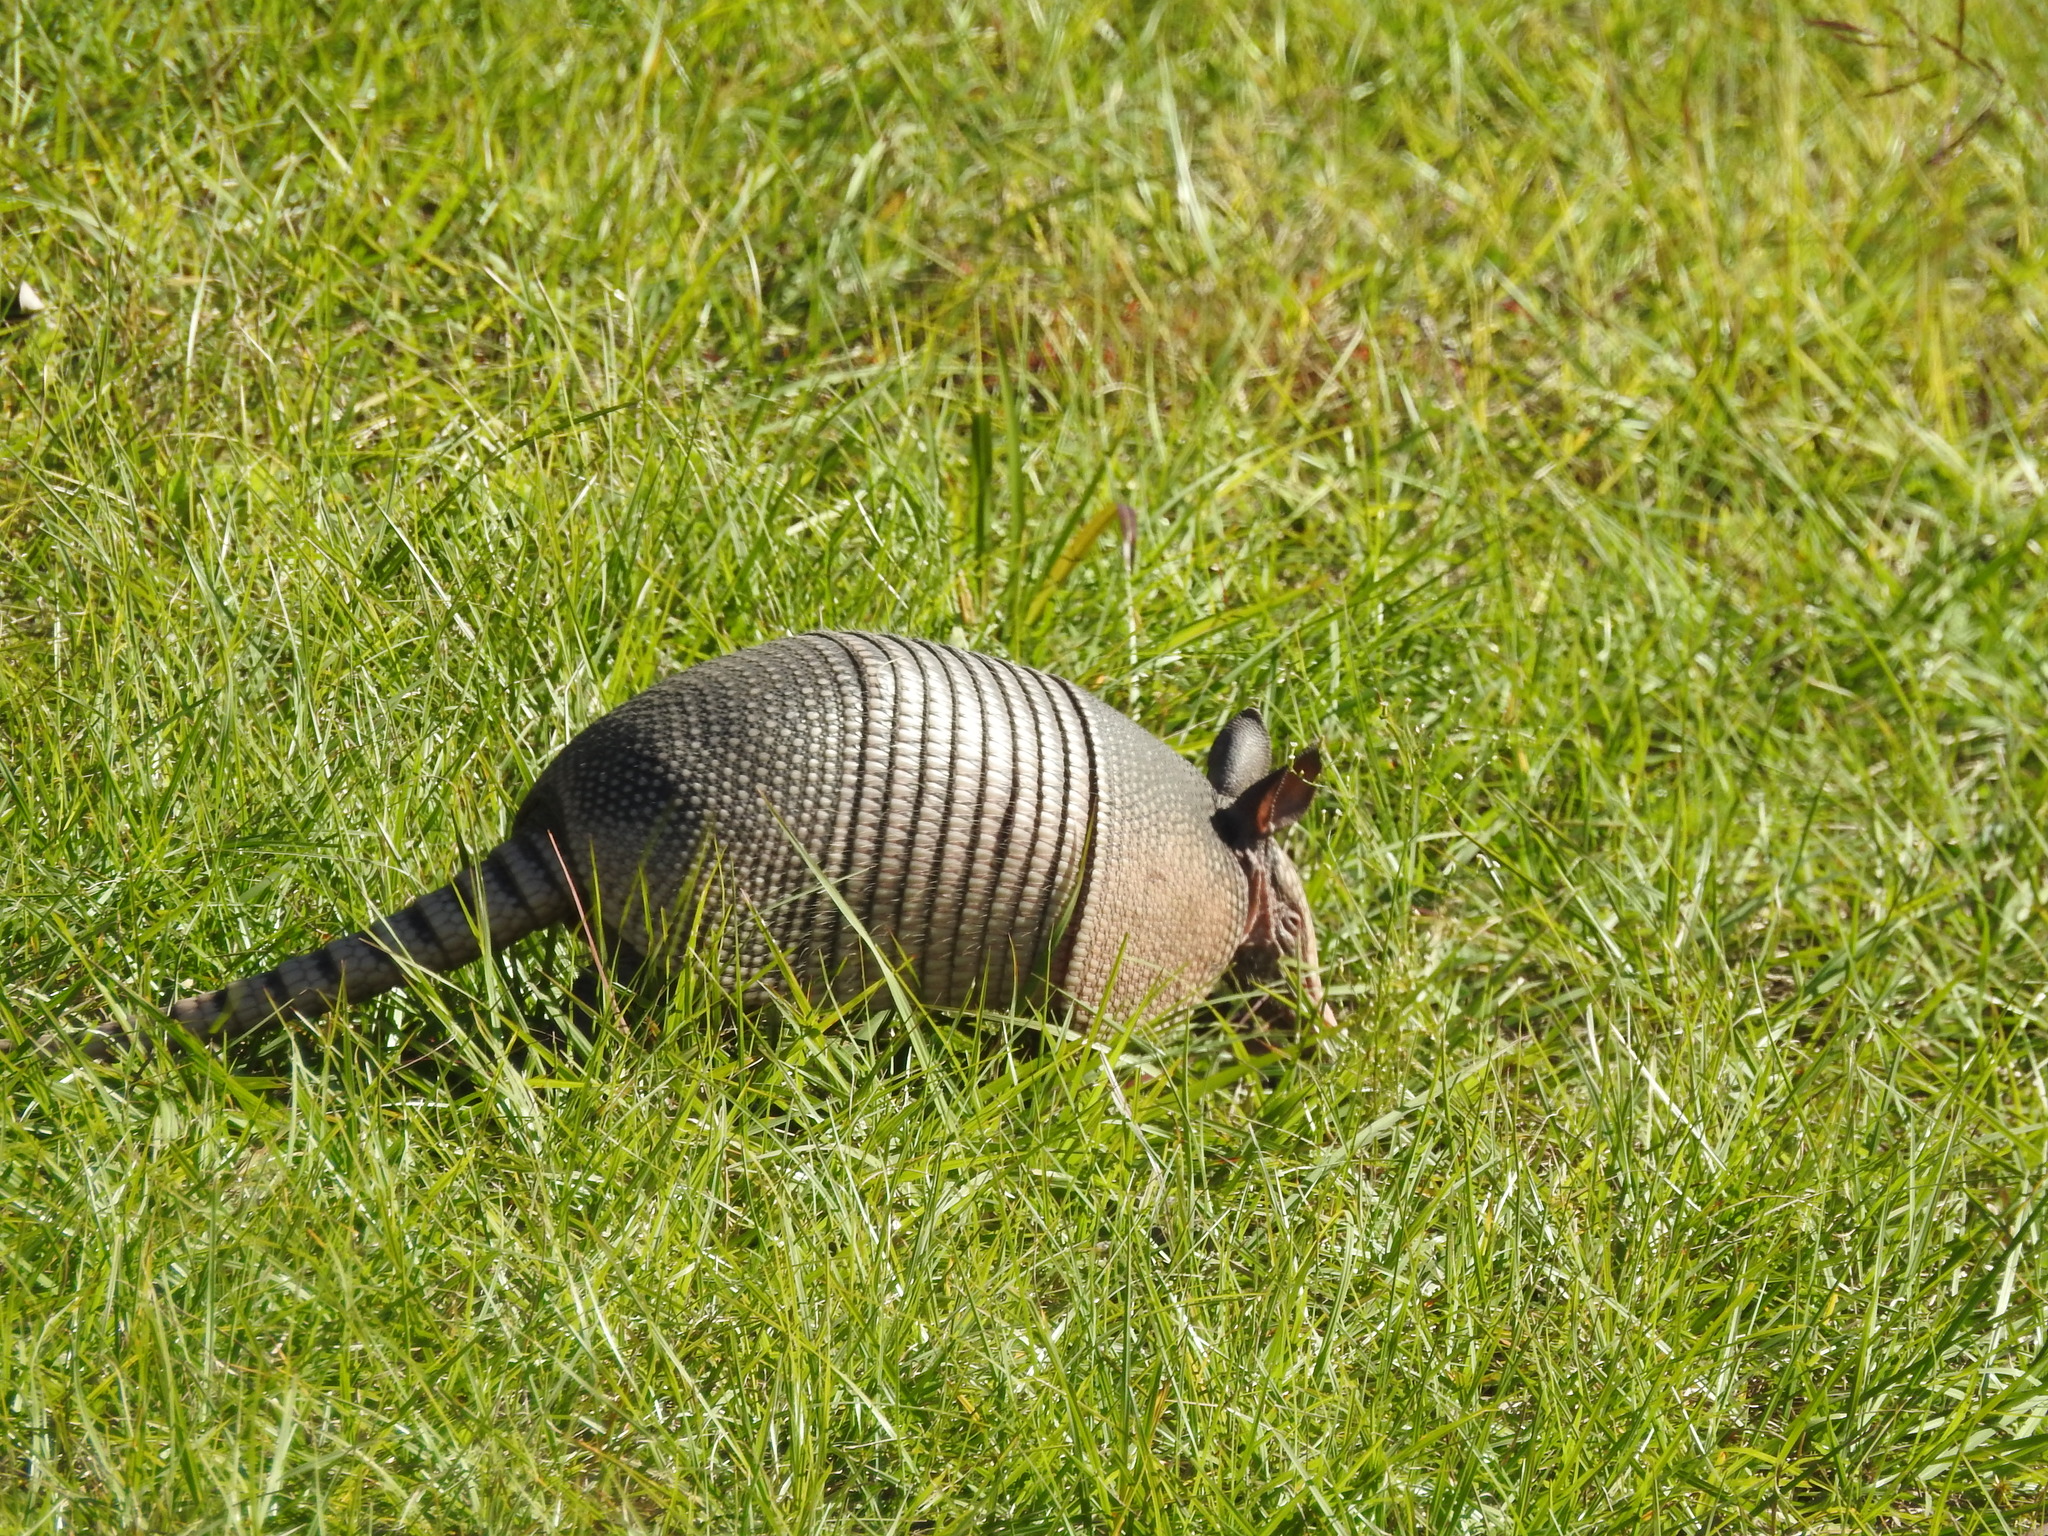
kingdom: Animalia
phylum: Chordata
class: Mammalia
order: Cingulata
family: Dasypodidae
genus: Dasypus
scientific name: Dasypus novemcinctus
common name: Nine-banded armadillo
